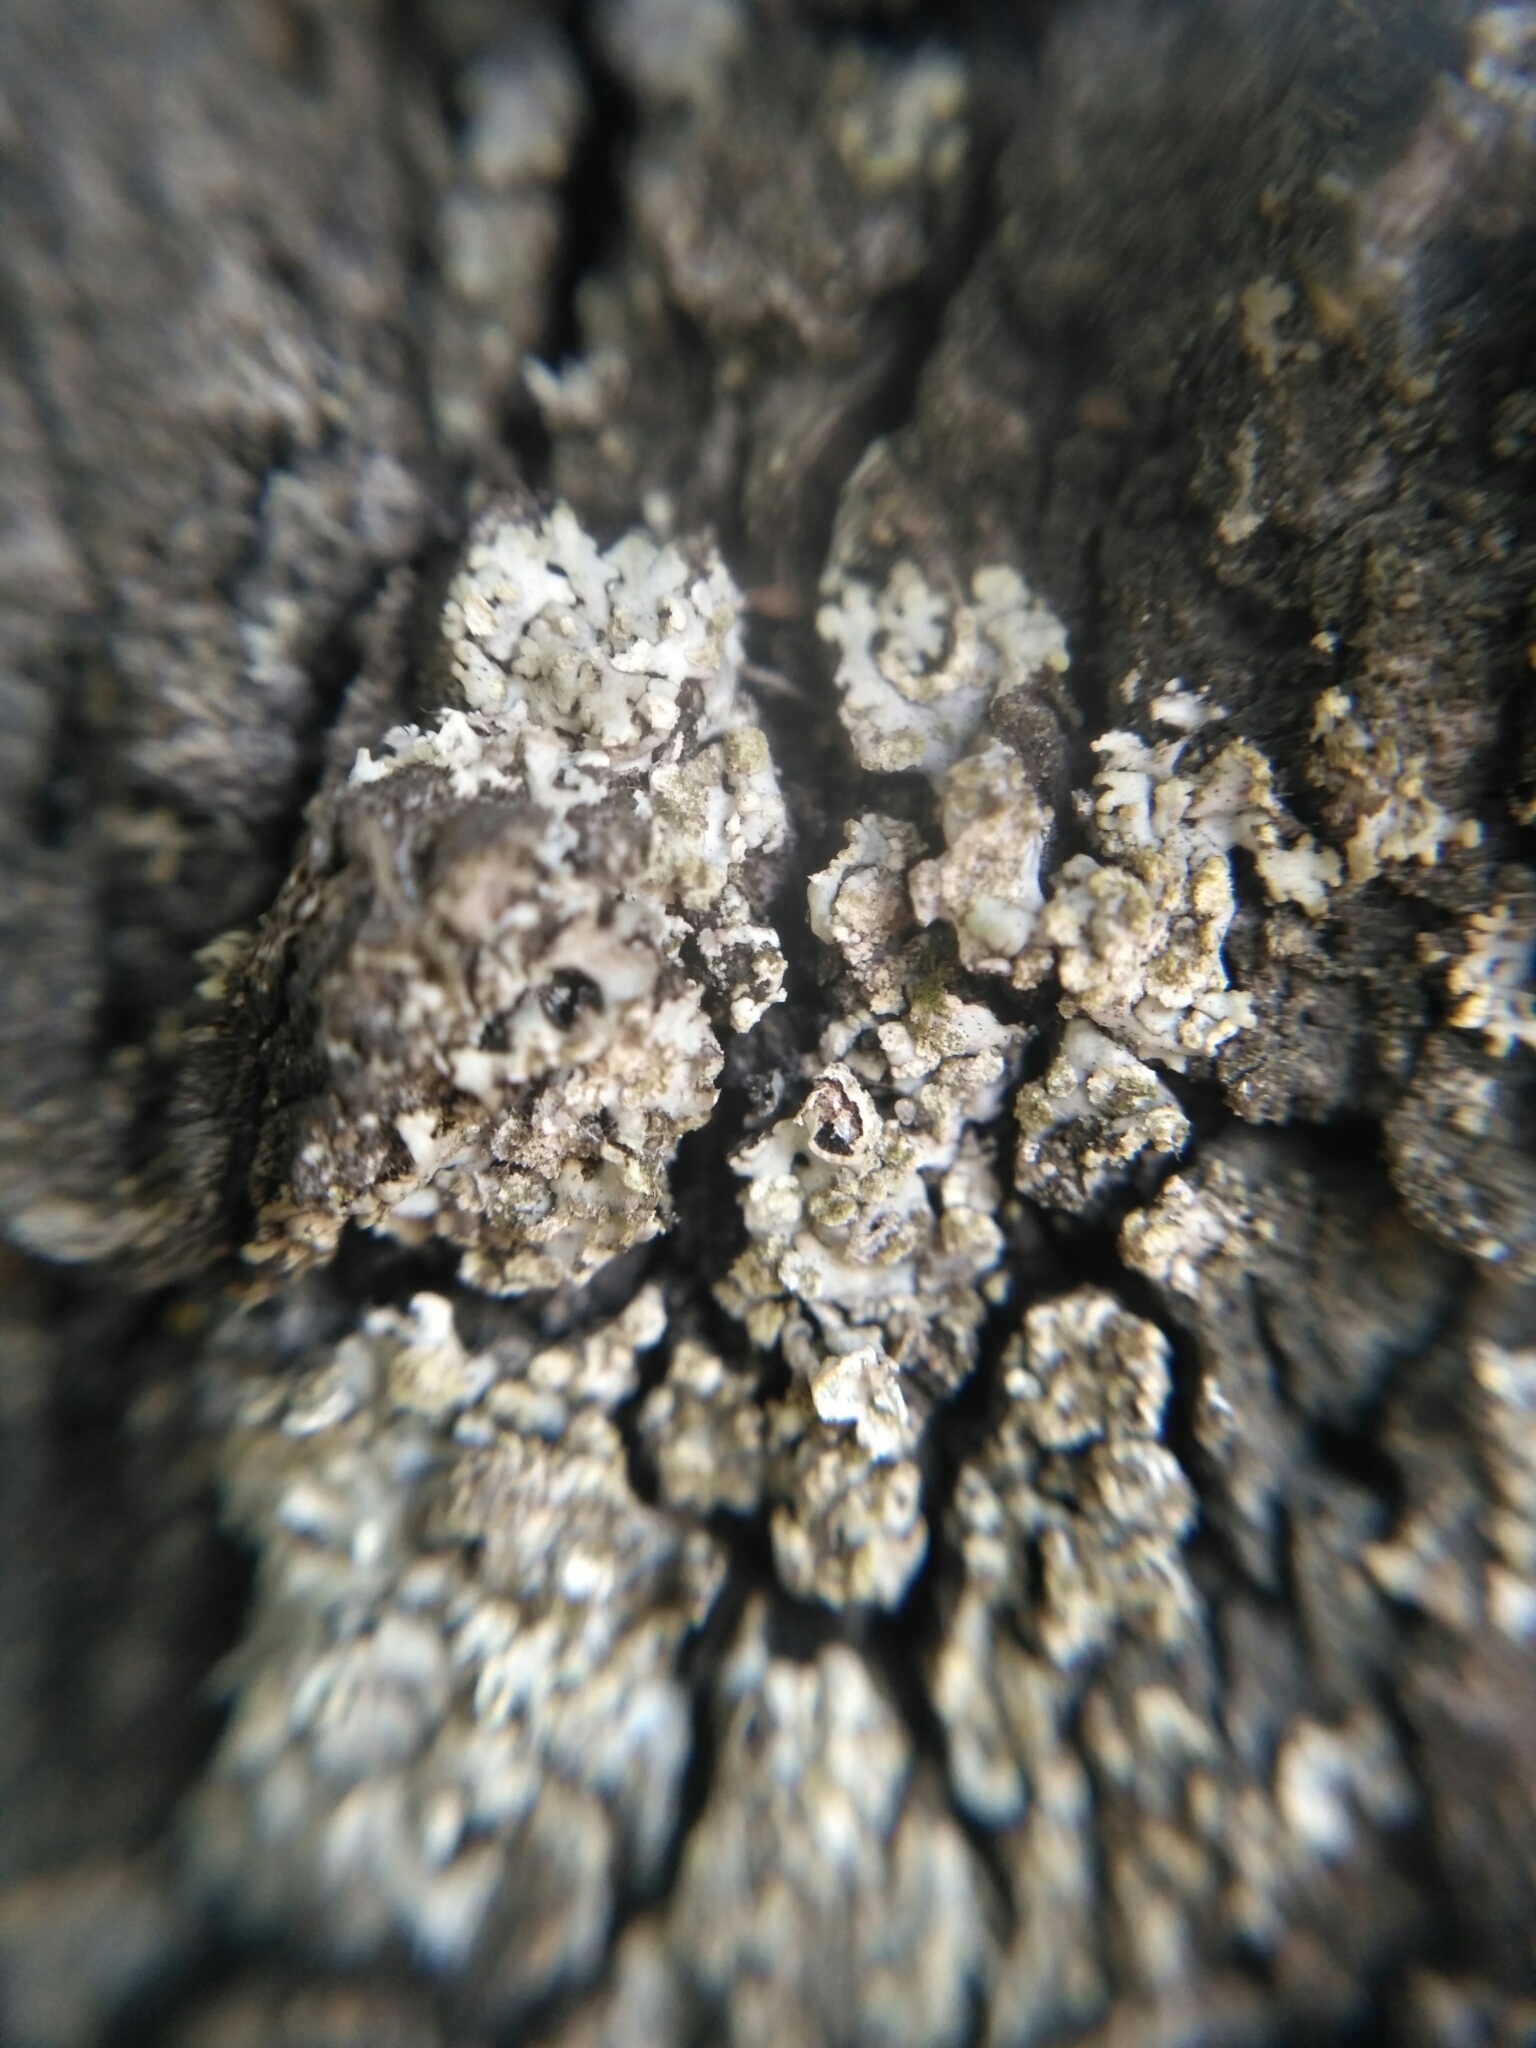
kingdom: Fungi
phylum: Ascomycota
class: Lecanoromycetes
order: Caliciales
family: Physciaceae
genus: Phaeophyscia
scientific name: Phaeophyscia orbicularis
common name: Mealy shadow lichen
